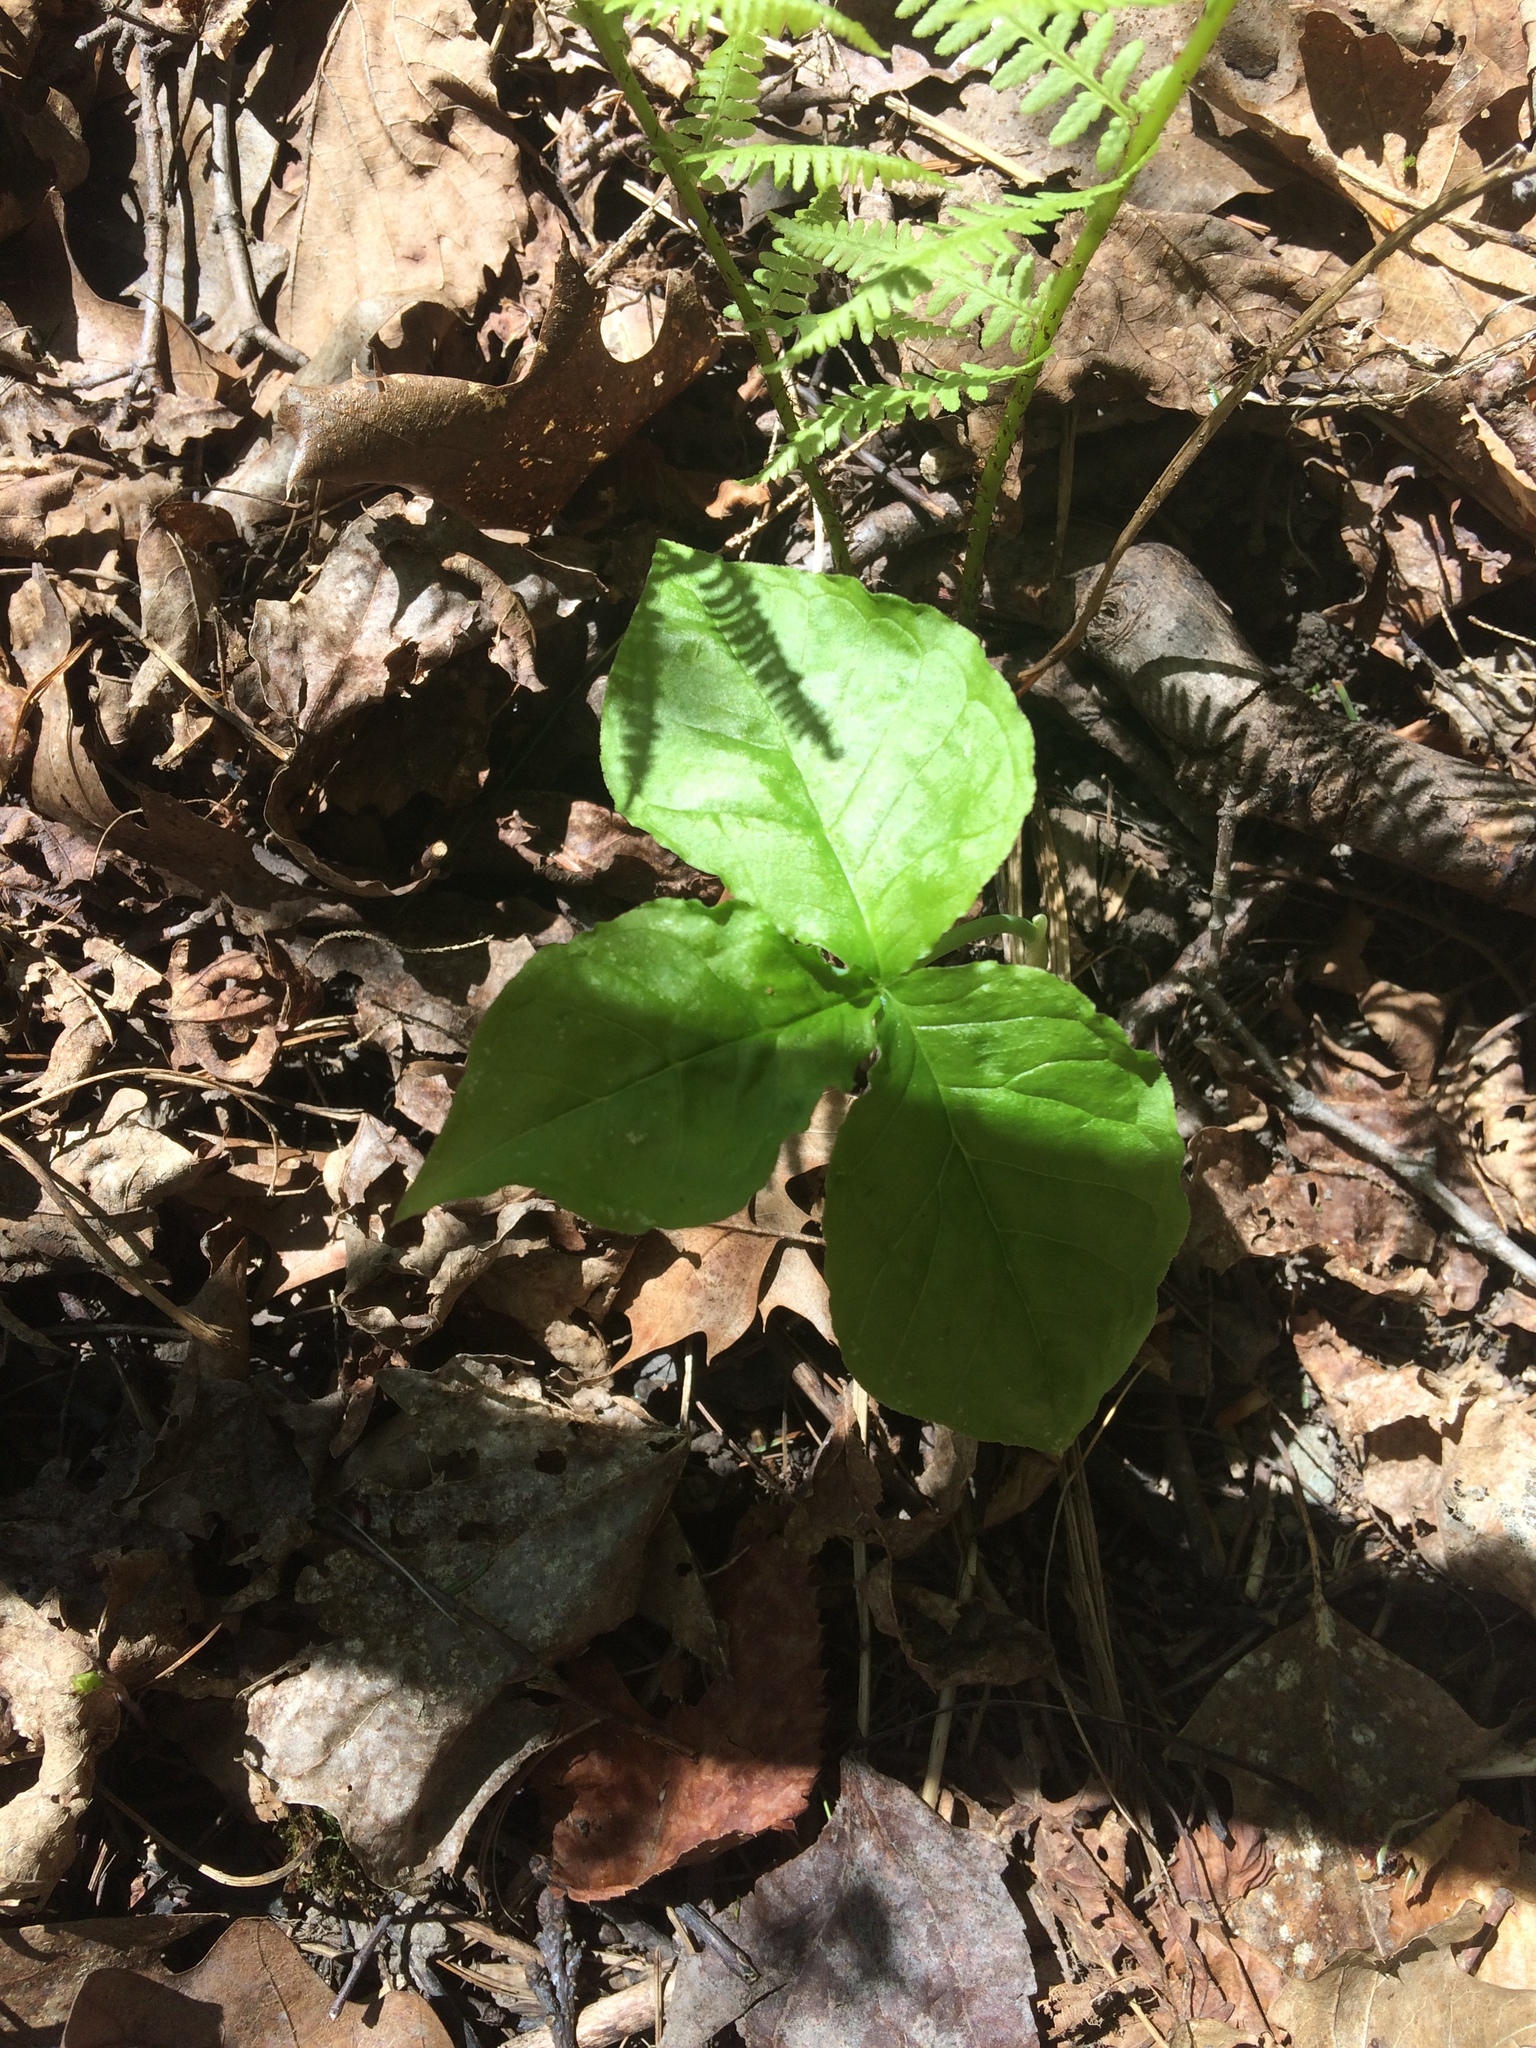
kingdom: Plantae
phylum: Tracheophyta
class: Liliopsida
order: Alismatales
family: Araceae
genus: Arisaema
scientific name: Arisaema triphyllum
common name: Jack-in-the-pulpit
